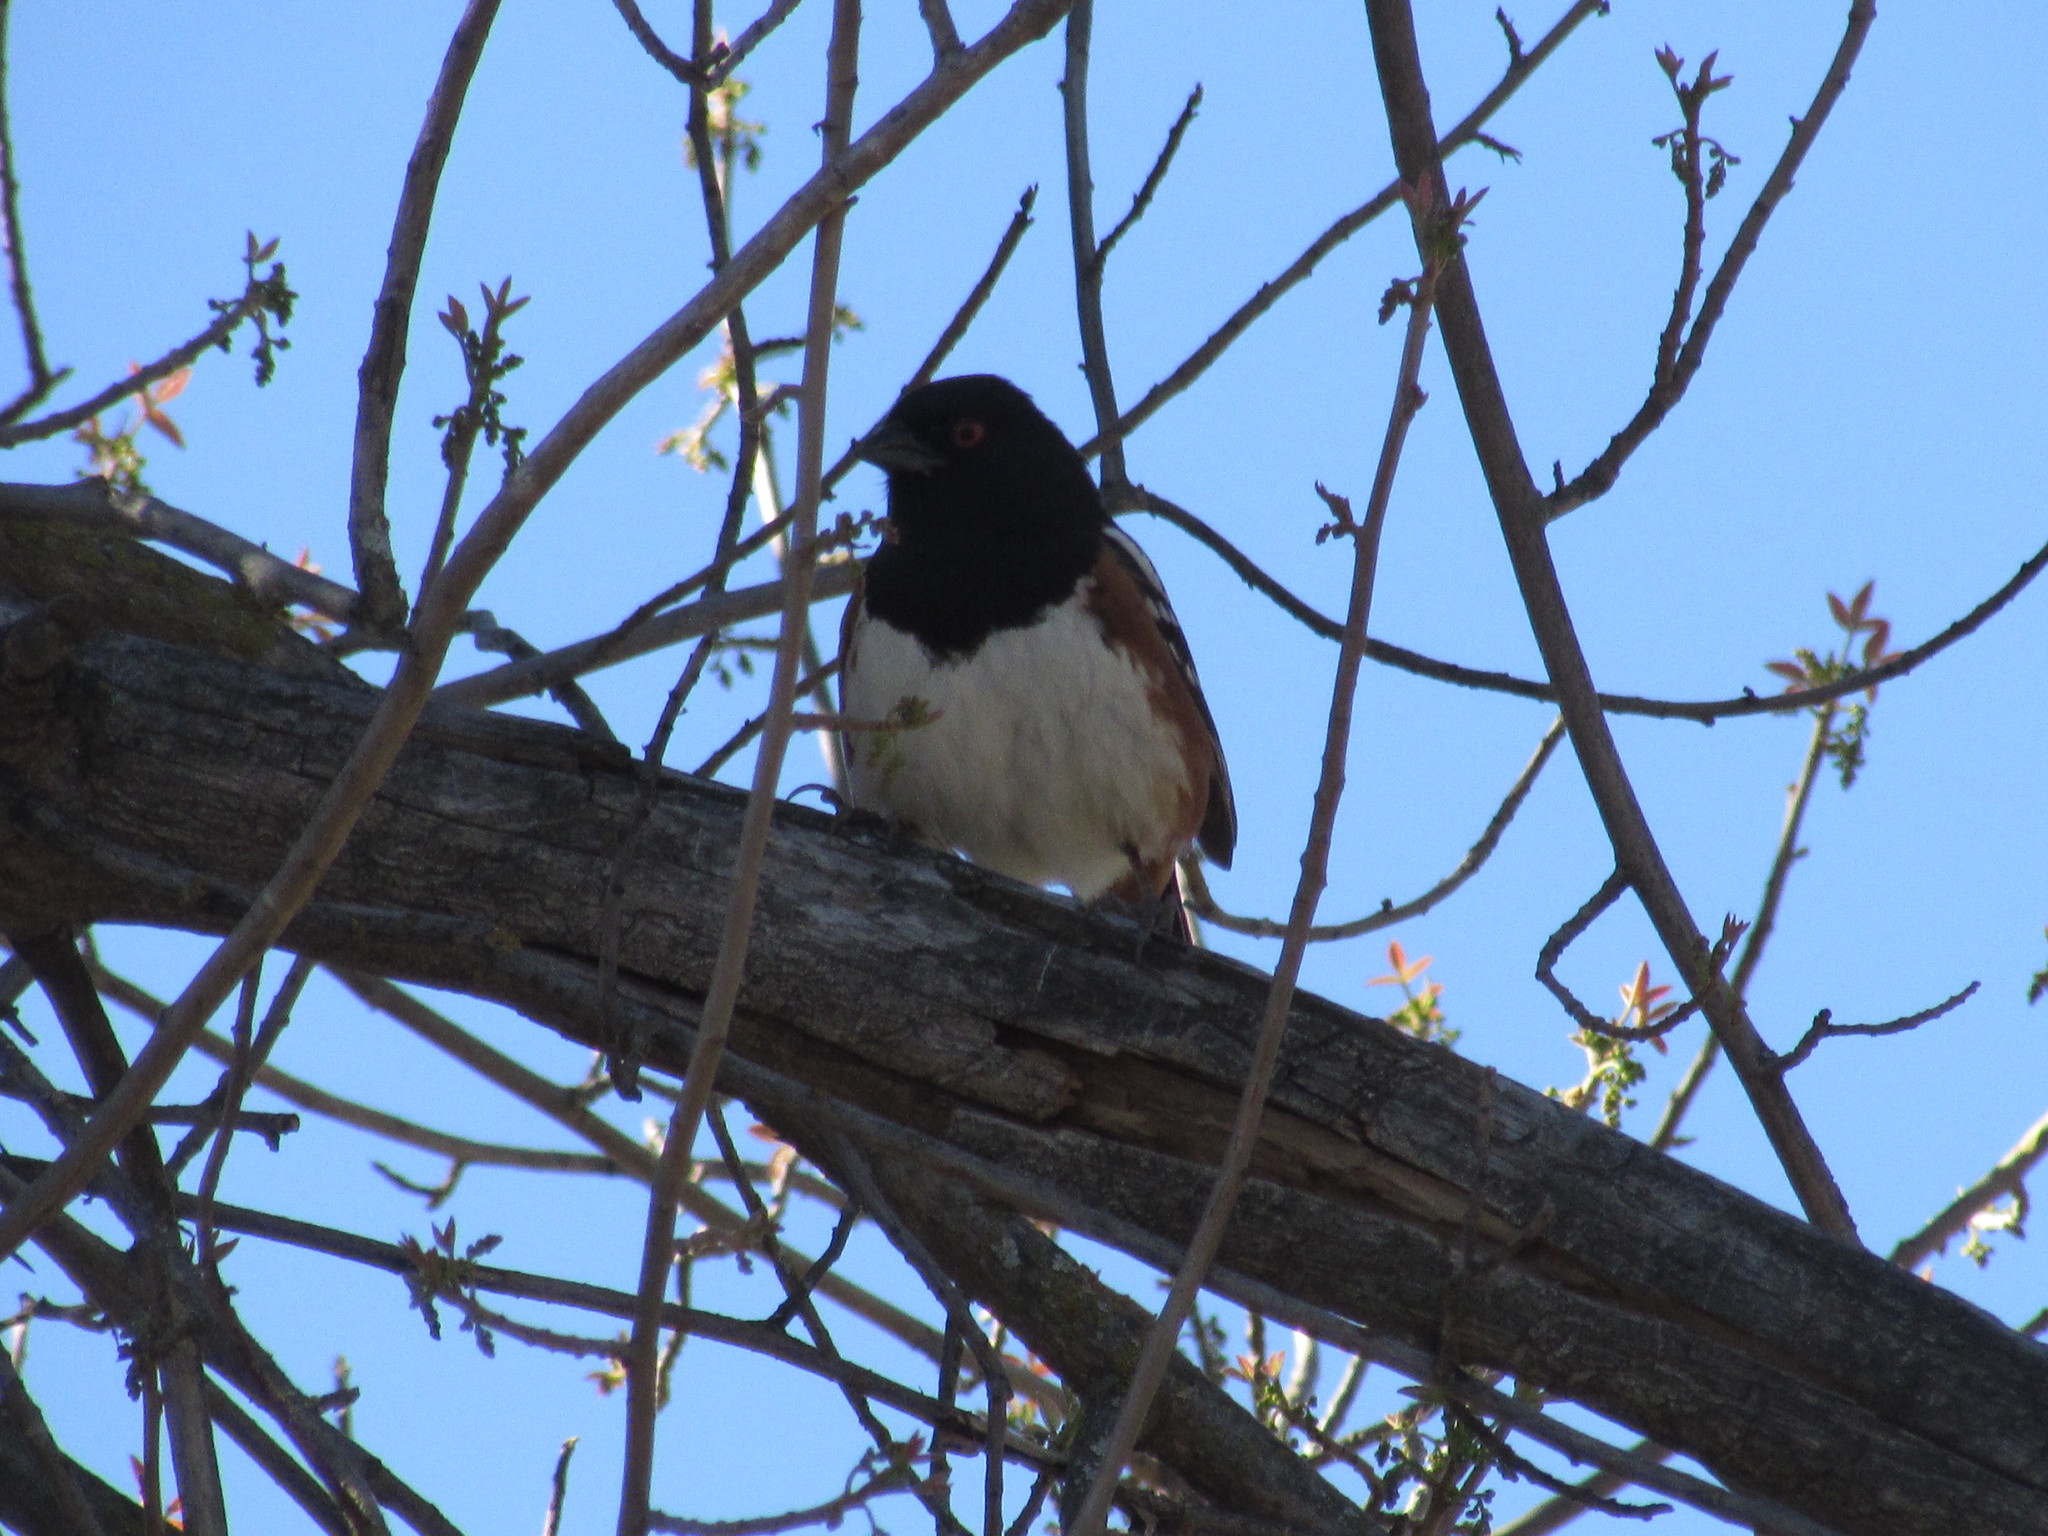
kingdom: Animalia
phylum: Chordata
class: Aves
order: Passeriformes
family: Passerellidae
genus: Pipilo
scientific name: Pipilo maculatus
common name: Spotted towhee
